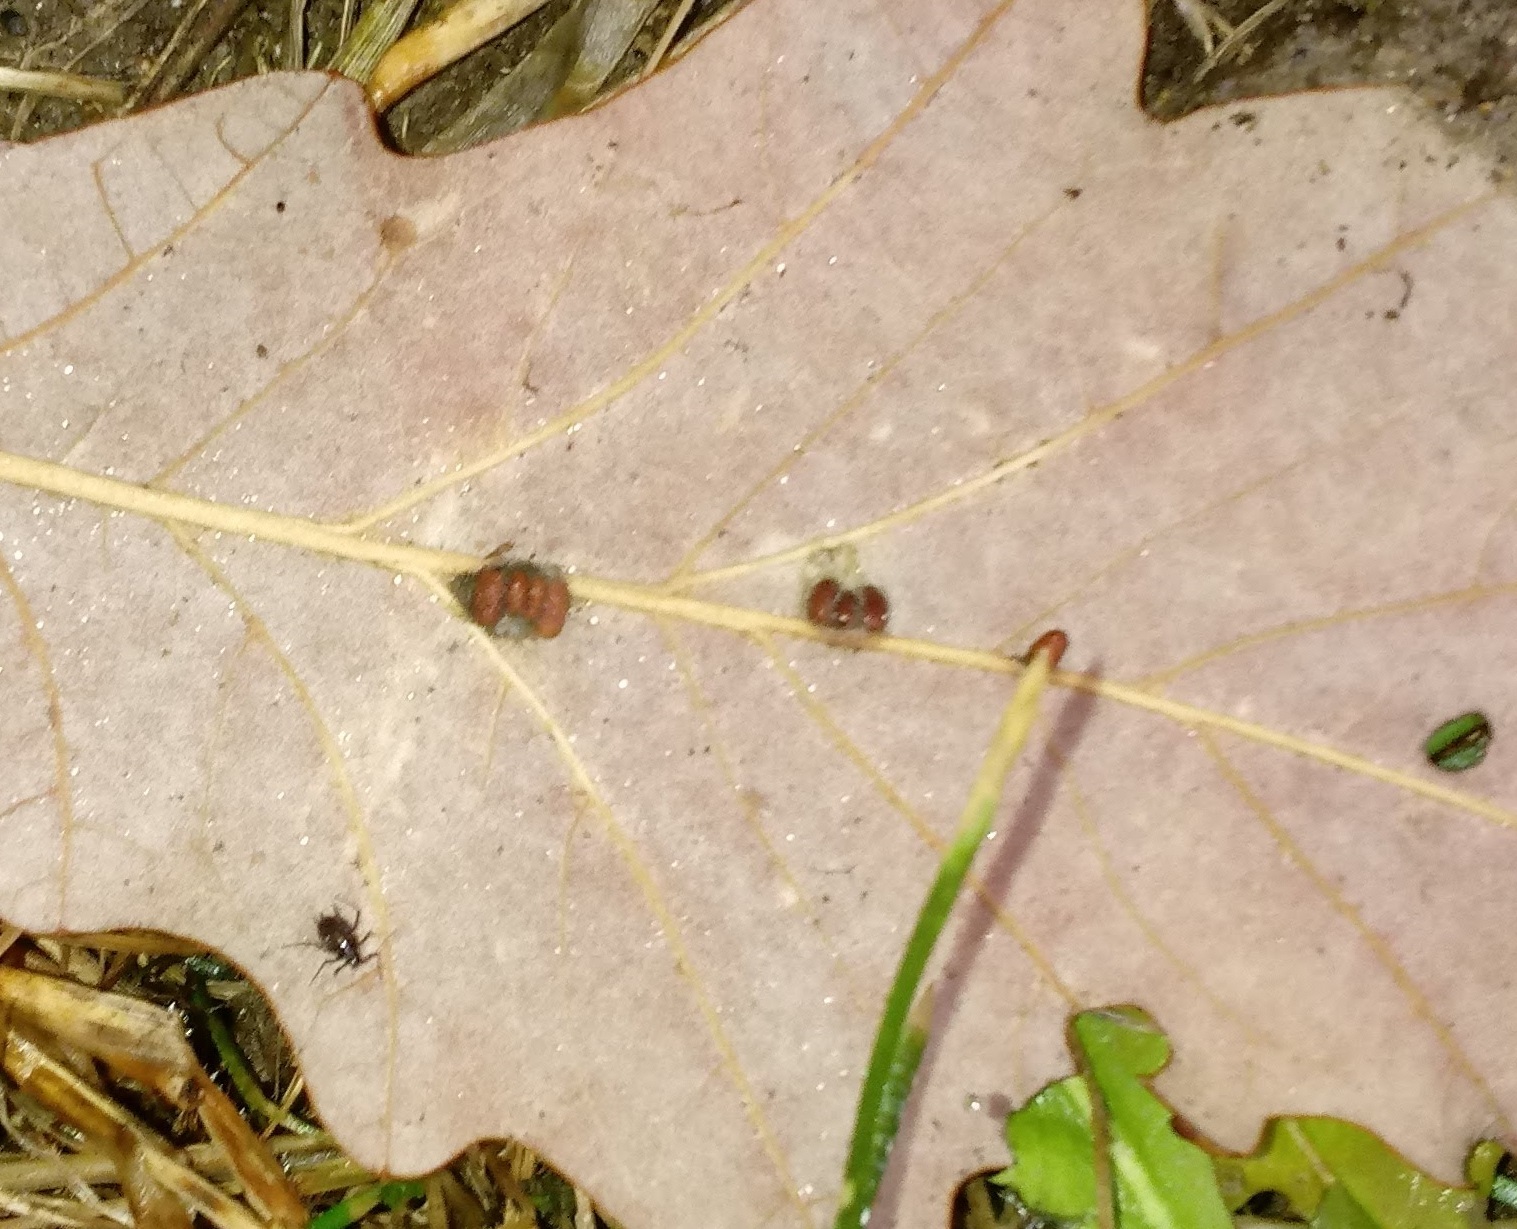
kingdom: Animalia
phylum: Arthropoda
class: Insecta
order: Hymenoptera
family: Cynipidae
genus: Andricus
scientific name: Andricus Druon ignotum
